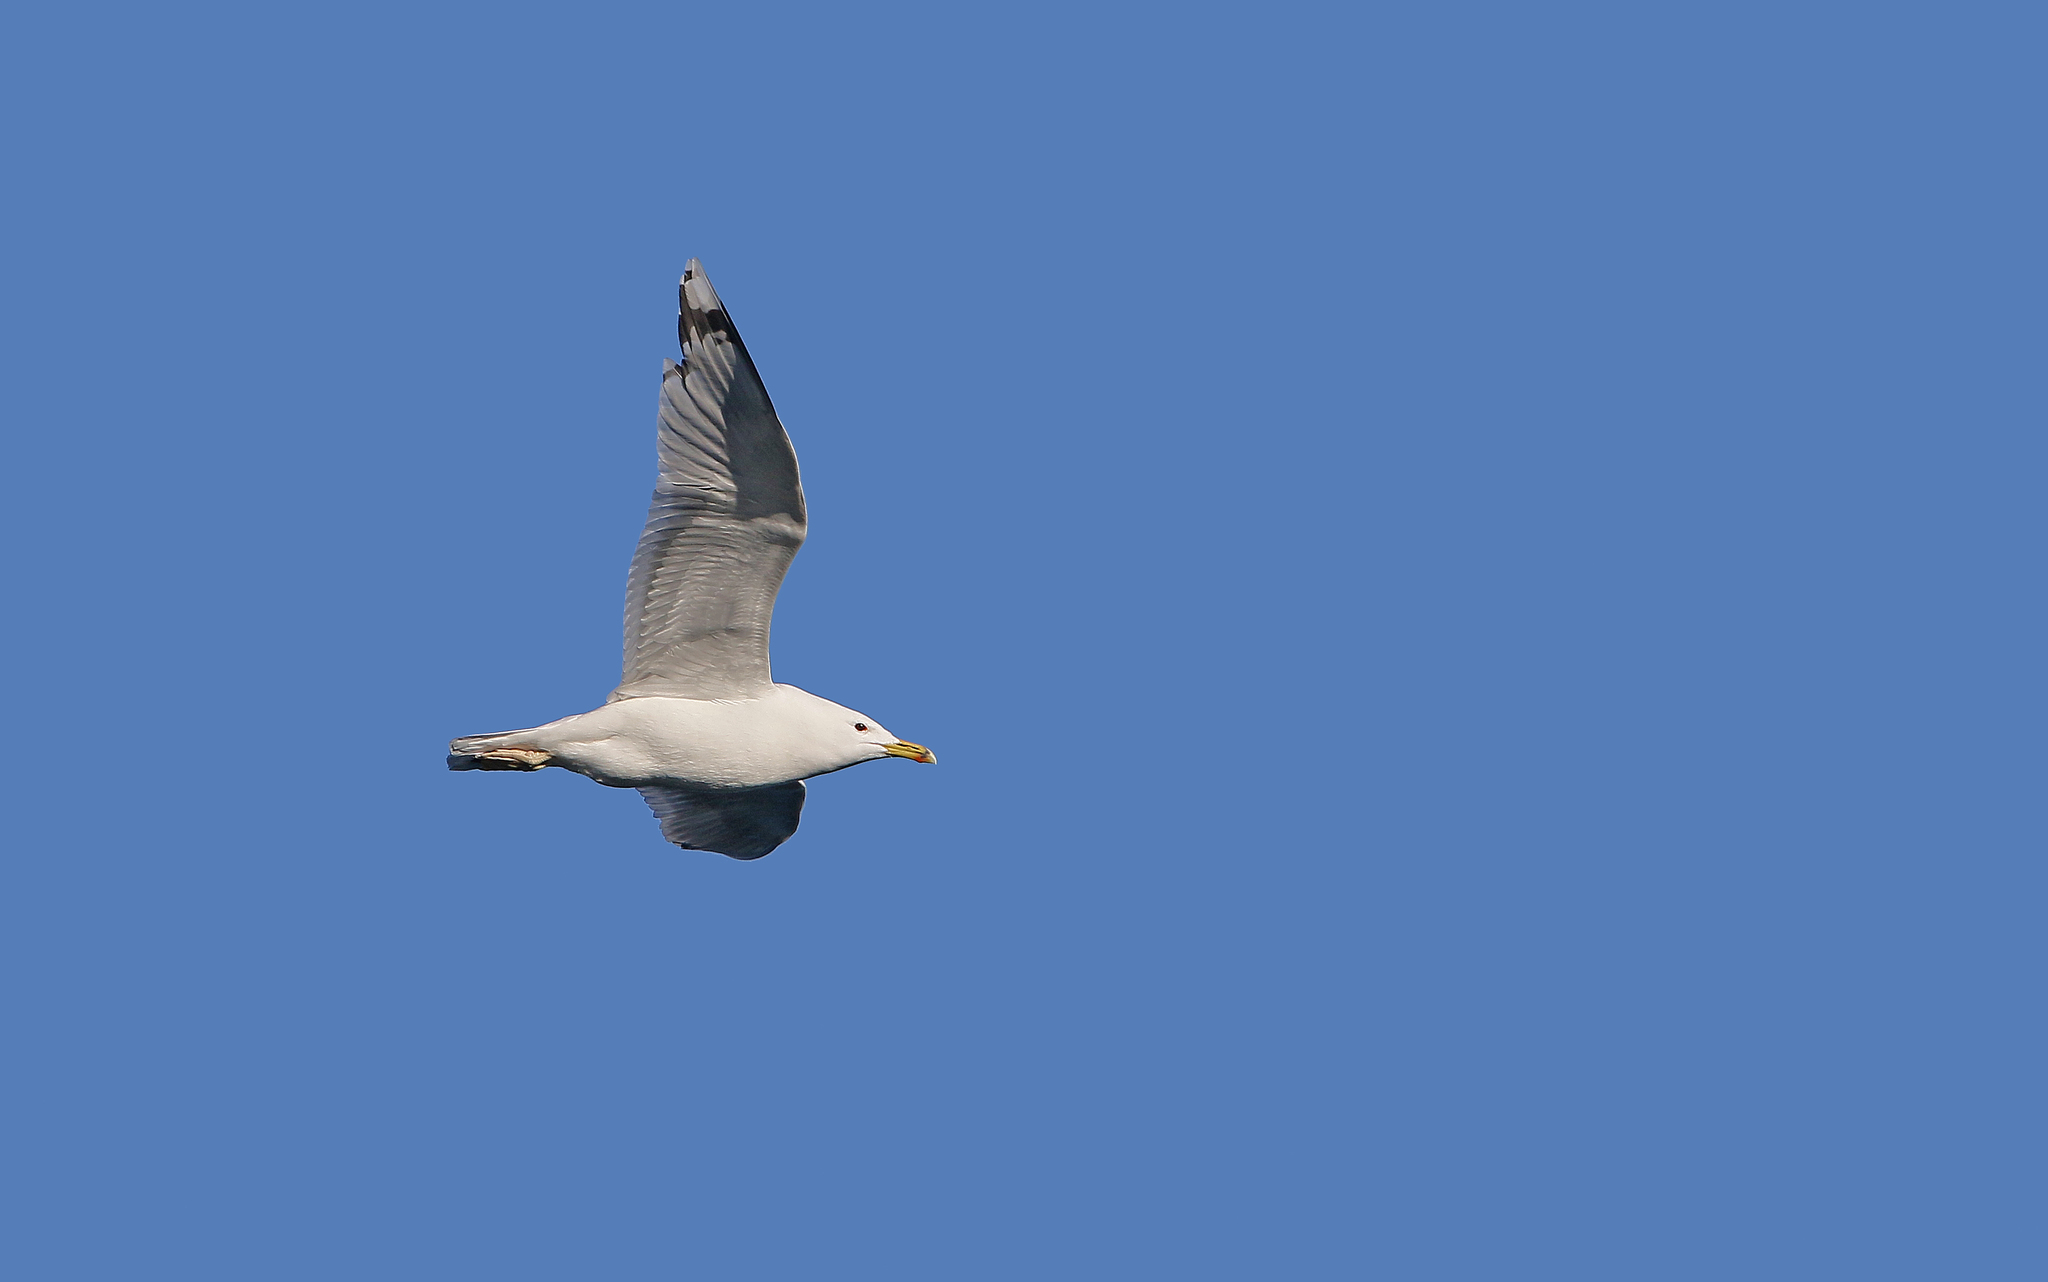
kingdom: Animalia
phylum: Chordata
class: Aves
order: Charadriiformes
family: Laridae
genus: Larus
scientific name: Larus cachinnans
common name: Caspian gull
